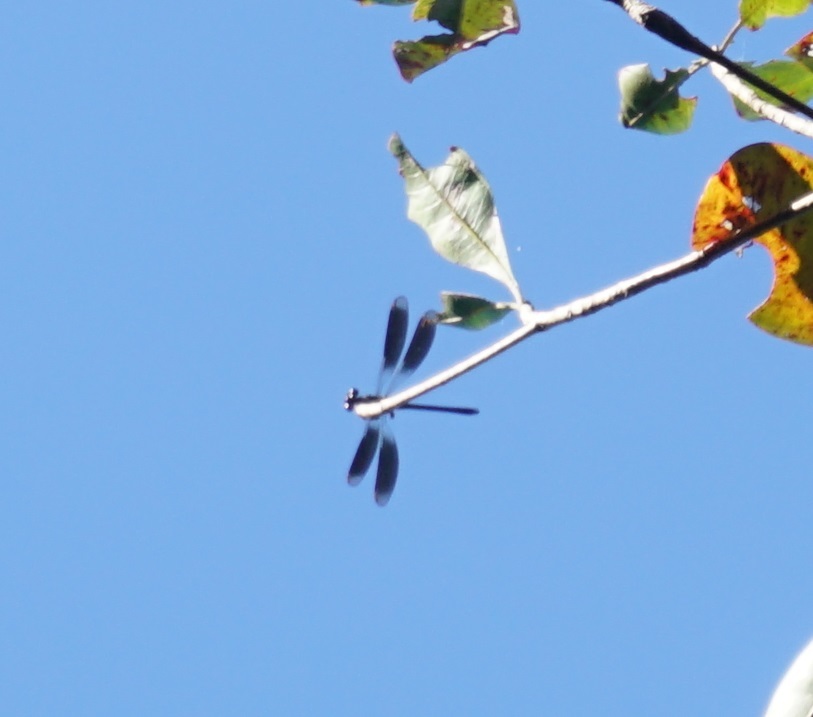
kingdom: Animalia
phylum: Arthropoda
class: Insecta
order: Odonata
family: Lestoideidae
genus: Diphlebia
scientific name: Diphlebia euphoeoides
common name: Tropical rockmaster
